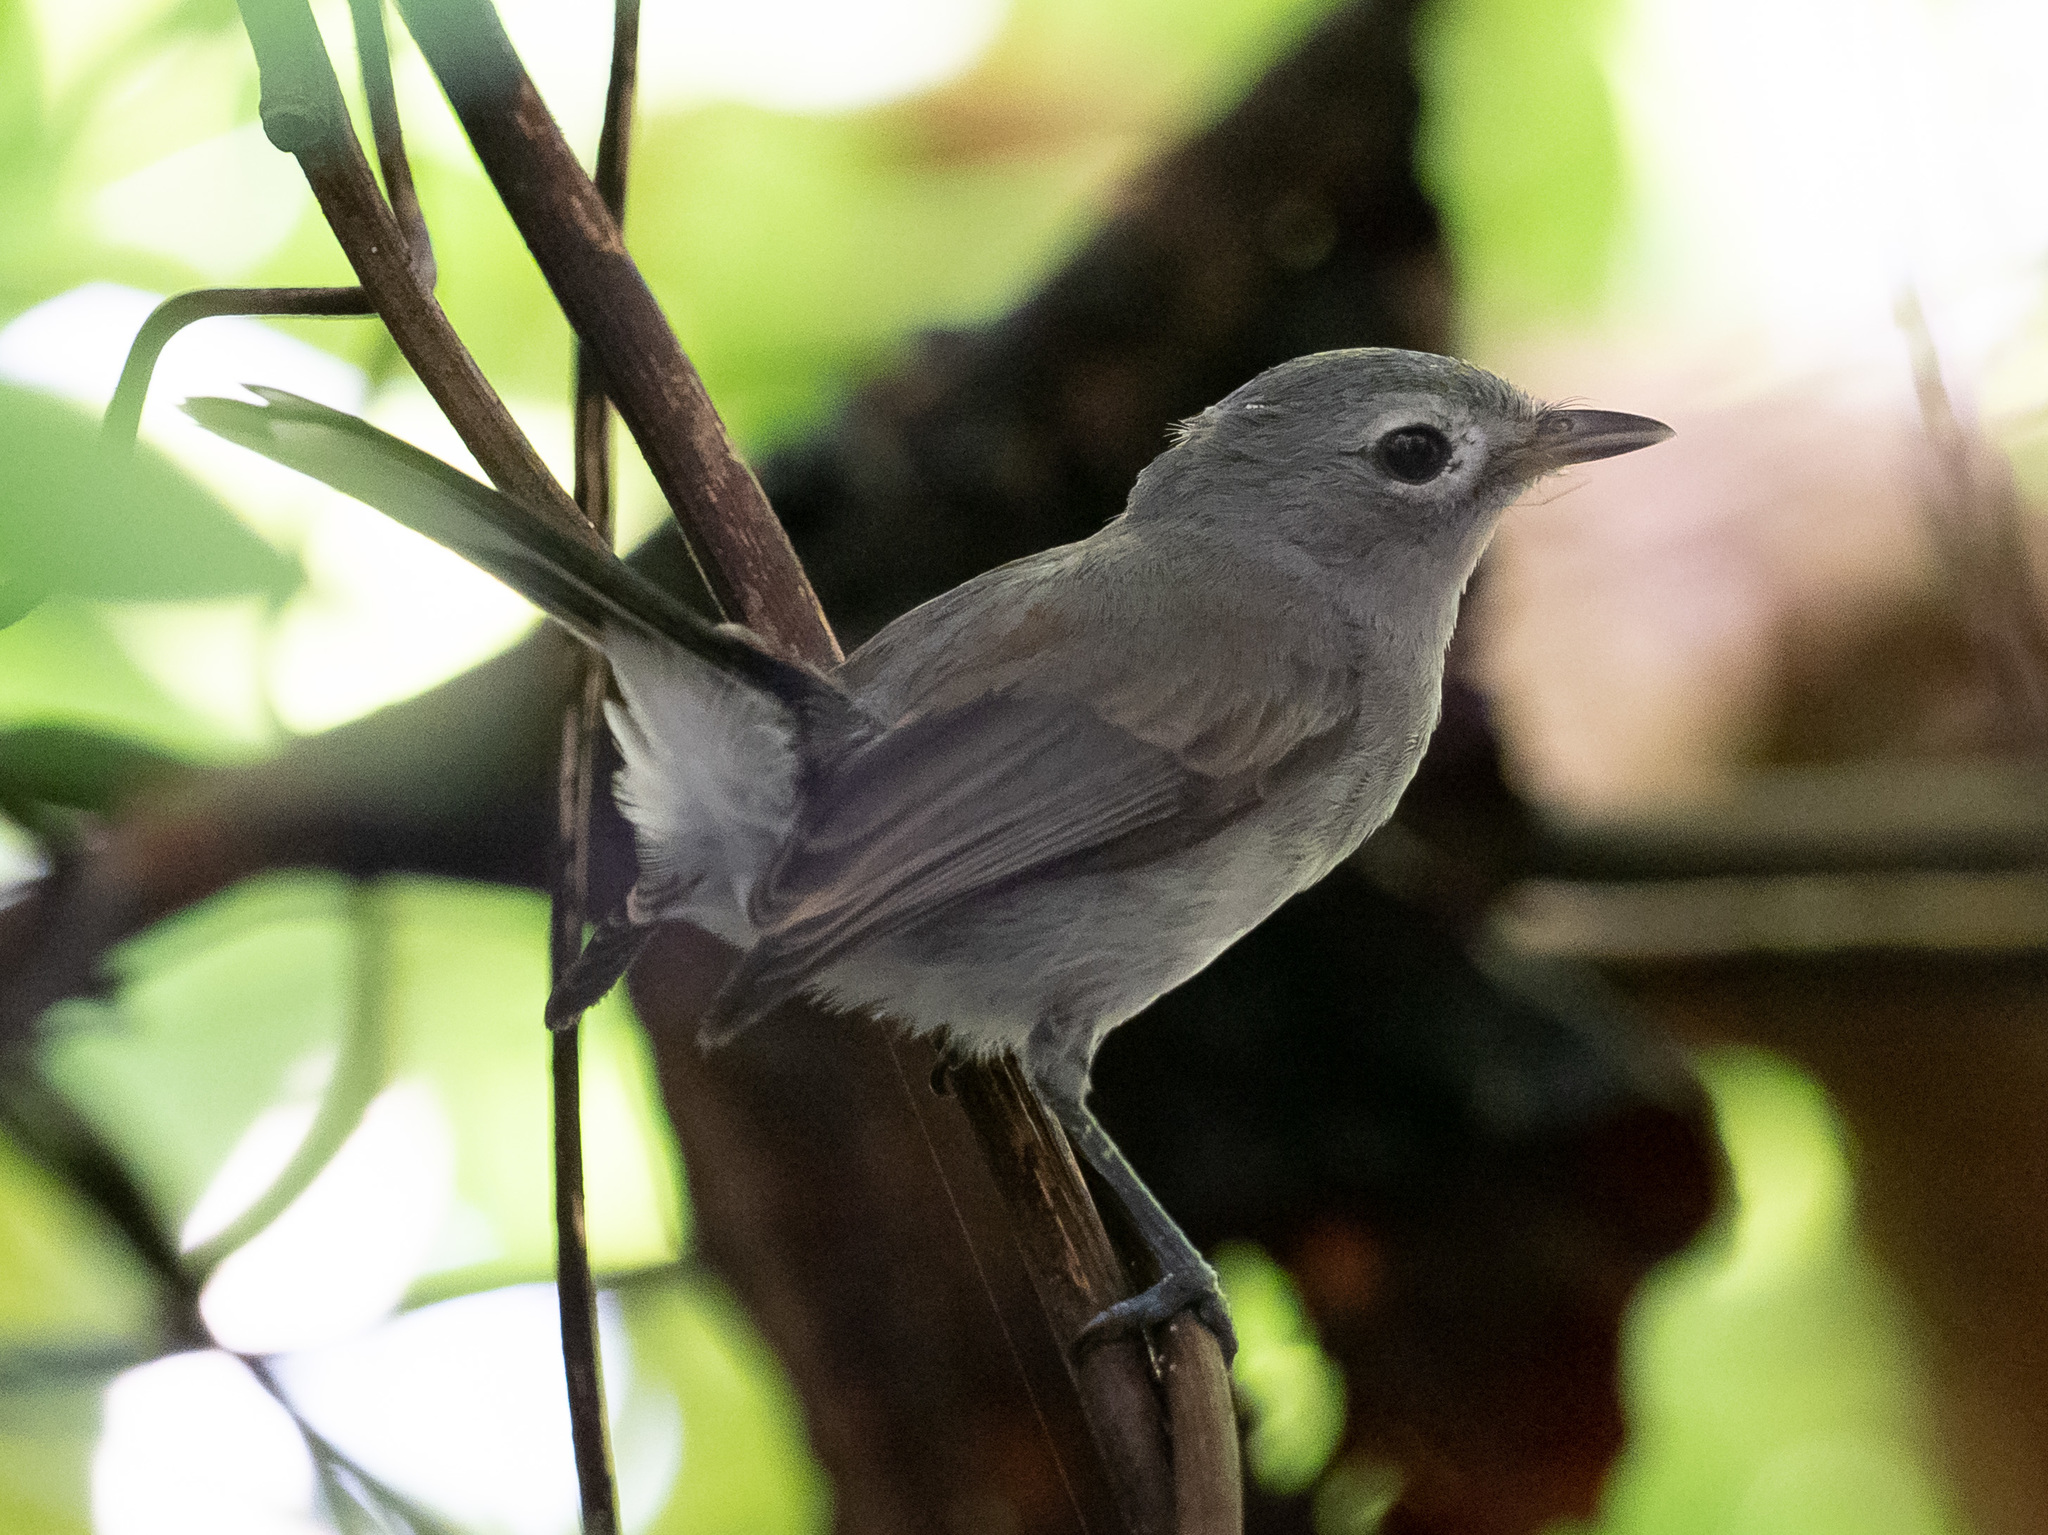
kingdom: Animalia
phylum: Chordata
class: Aves
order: Passeriformes
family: Monarchidae
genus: Mayrornis
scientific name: Mayrornis lessoni
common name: Slaty monarch
